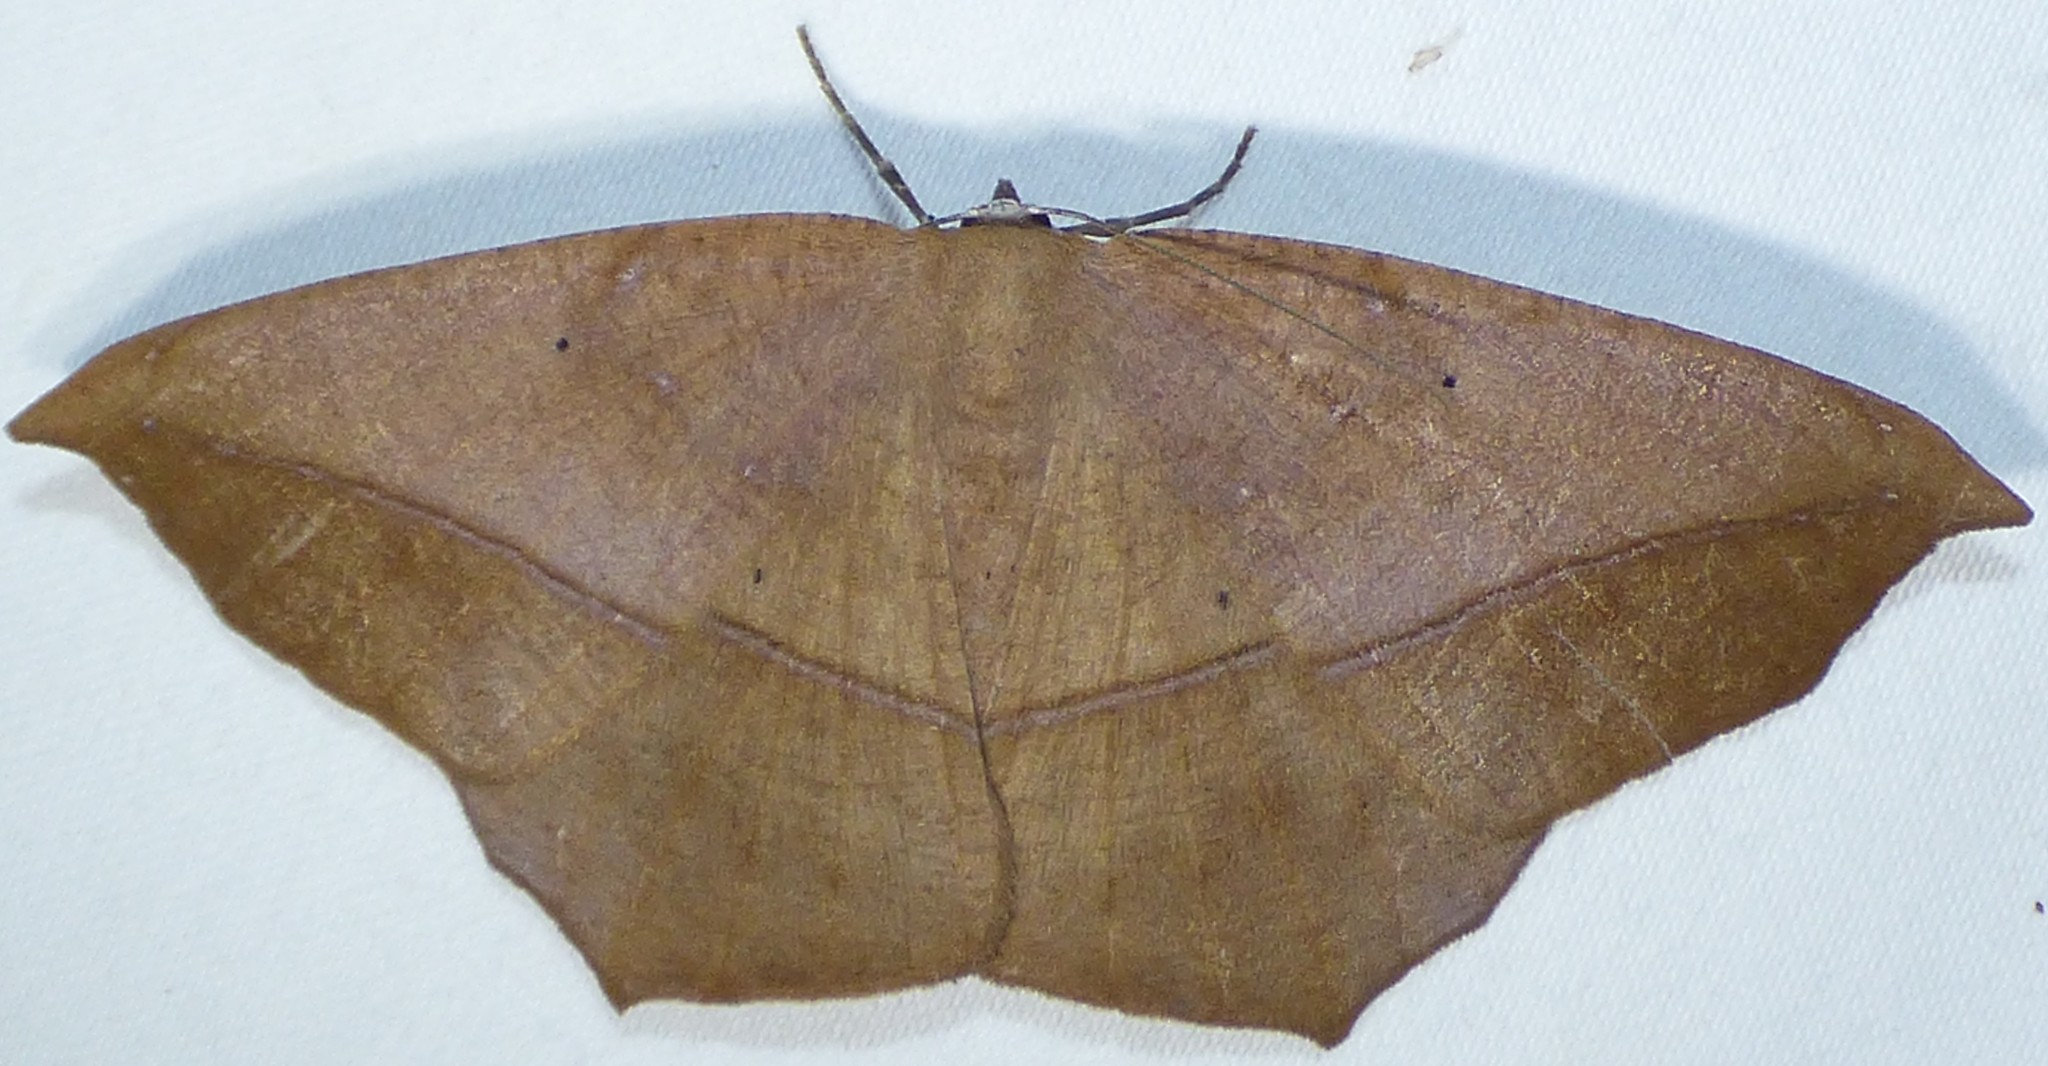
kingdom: Animalia
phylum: Arthropoda
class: Insecta
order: Lepidoptera
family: Geometridae
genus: Prochoerodes
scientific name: Prochoerodes lineola
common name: Large maple spanworm
